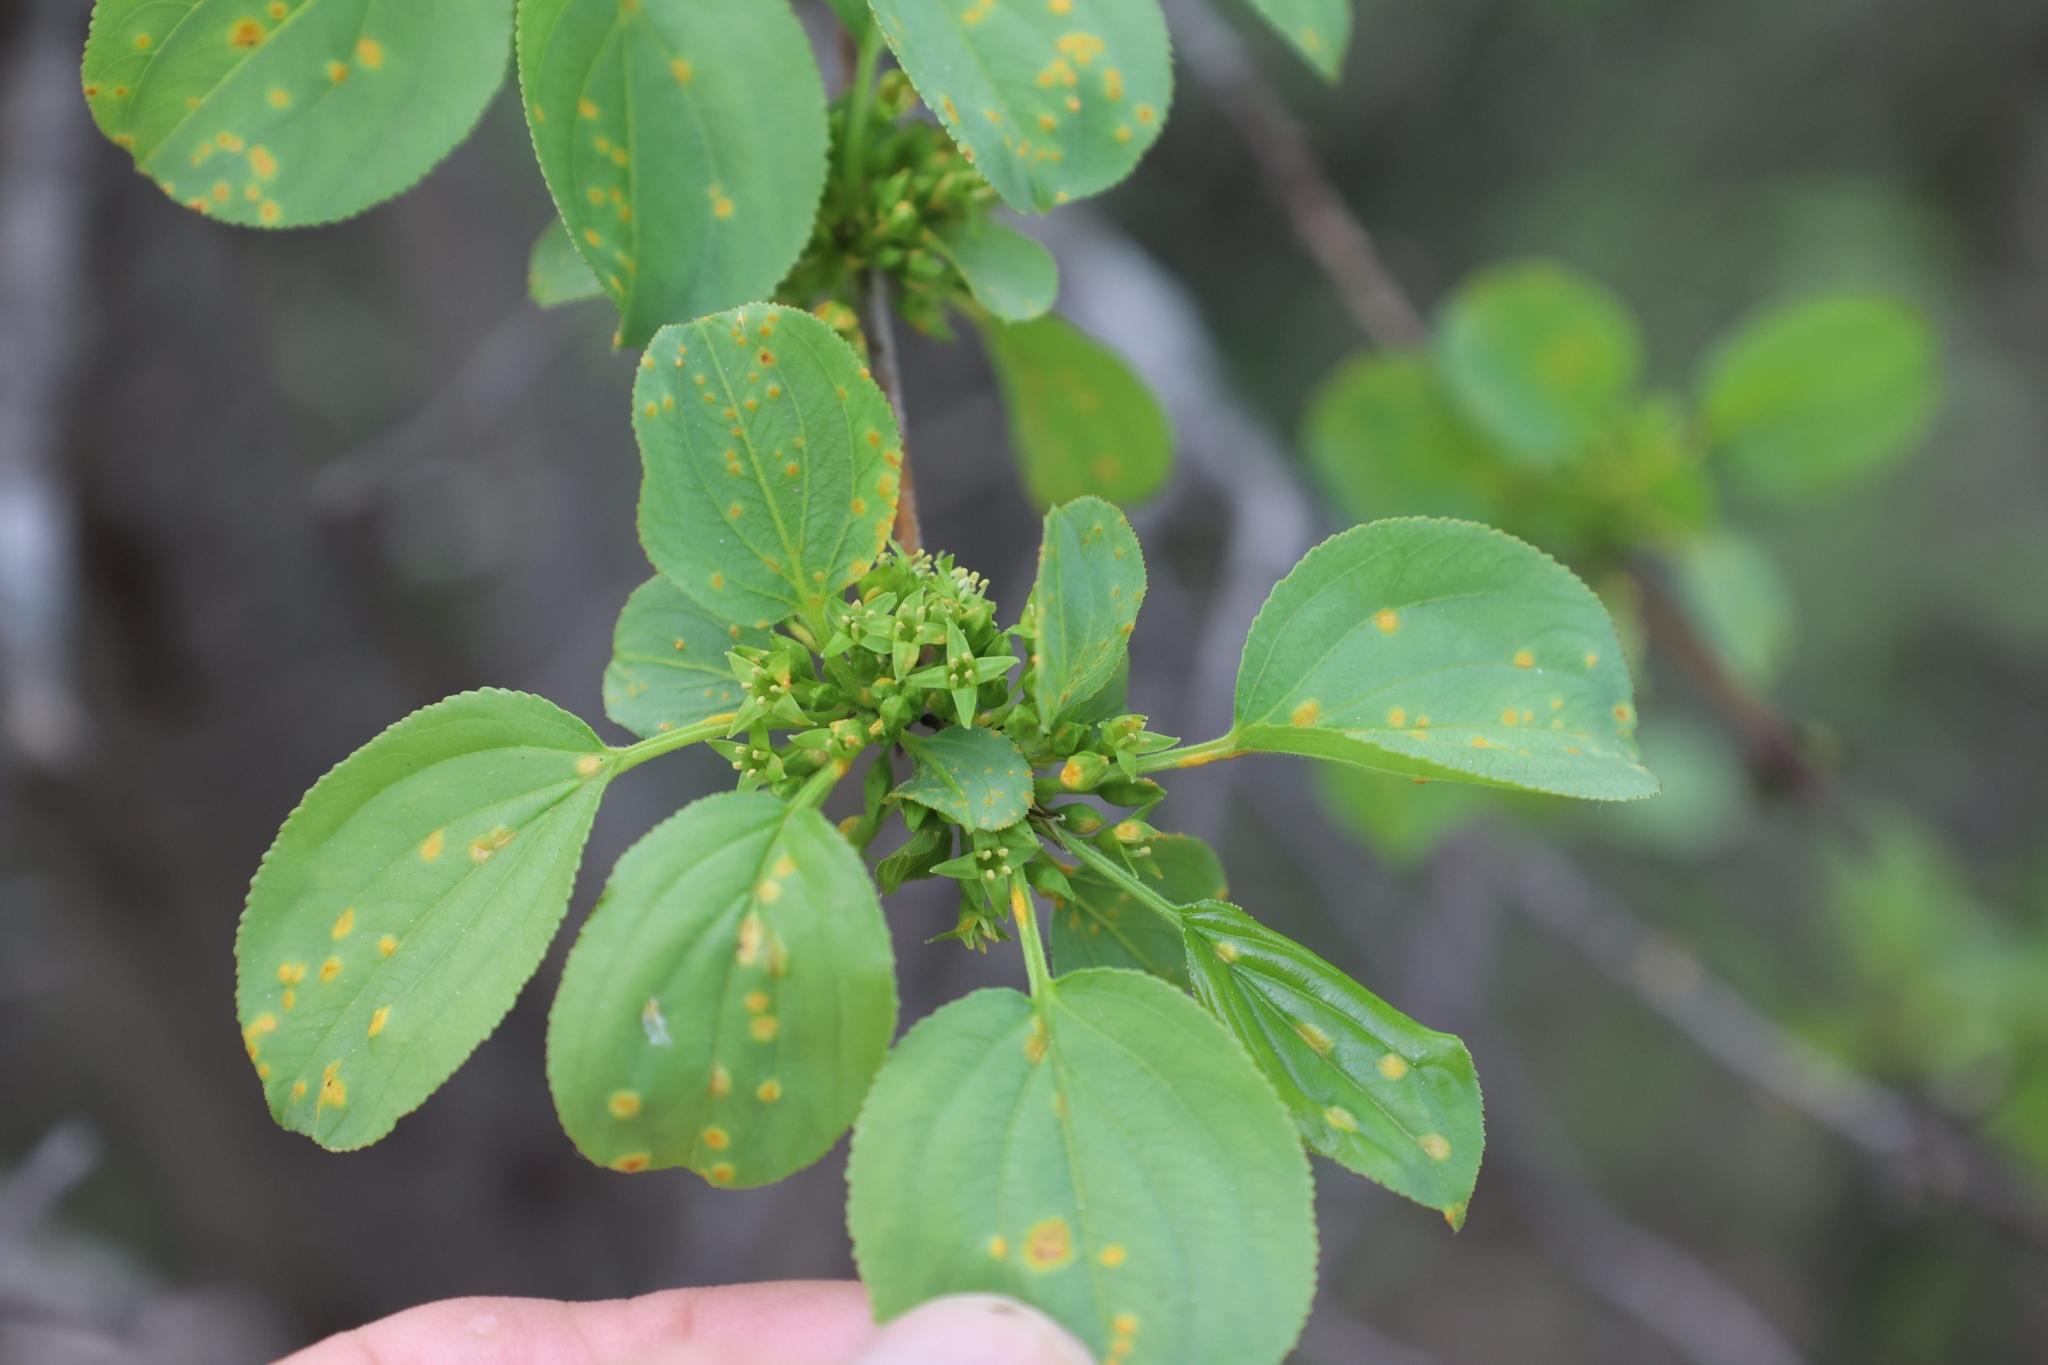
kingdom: Plantae
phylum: Tracheophyta
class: Magnoliopsida
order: Rosales
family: Rhamnaceae
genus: Rhamnus
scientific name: Rhamnus cathartica
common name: Common buckthorn
